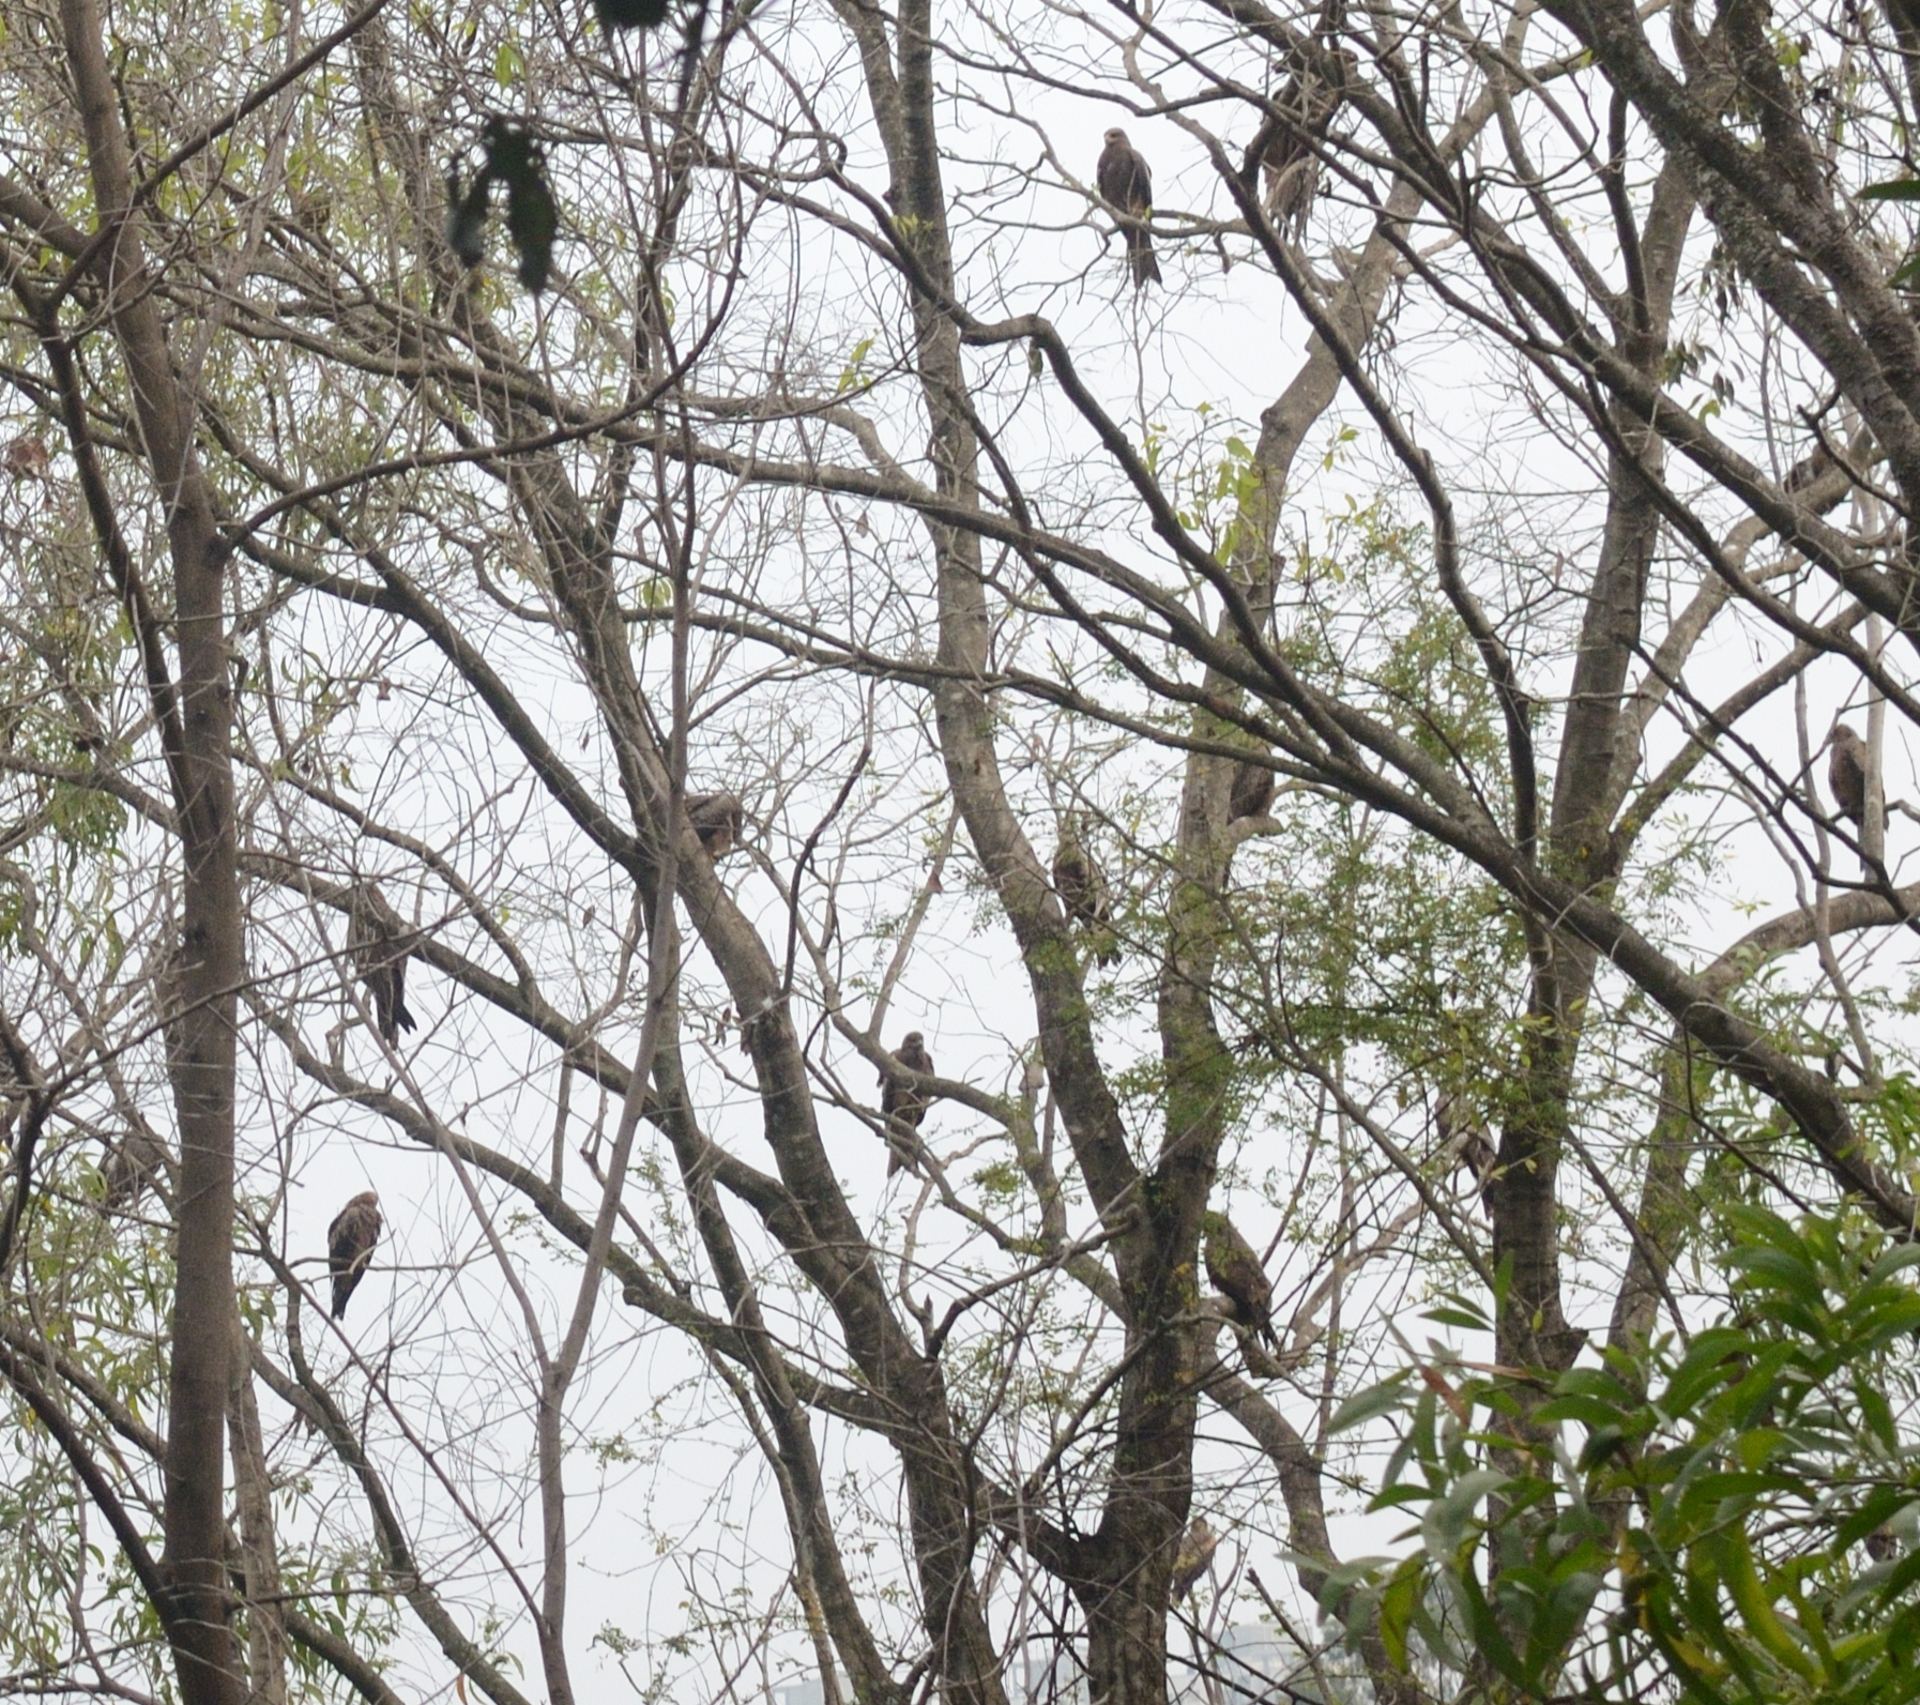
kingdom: Animalia
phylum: Chordata
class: Aves
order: Accipitriformes
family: Accipitridae
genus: Milvus
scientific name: Milvus migrans
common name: Black kite
